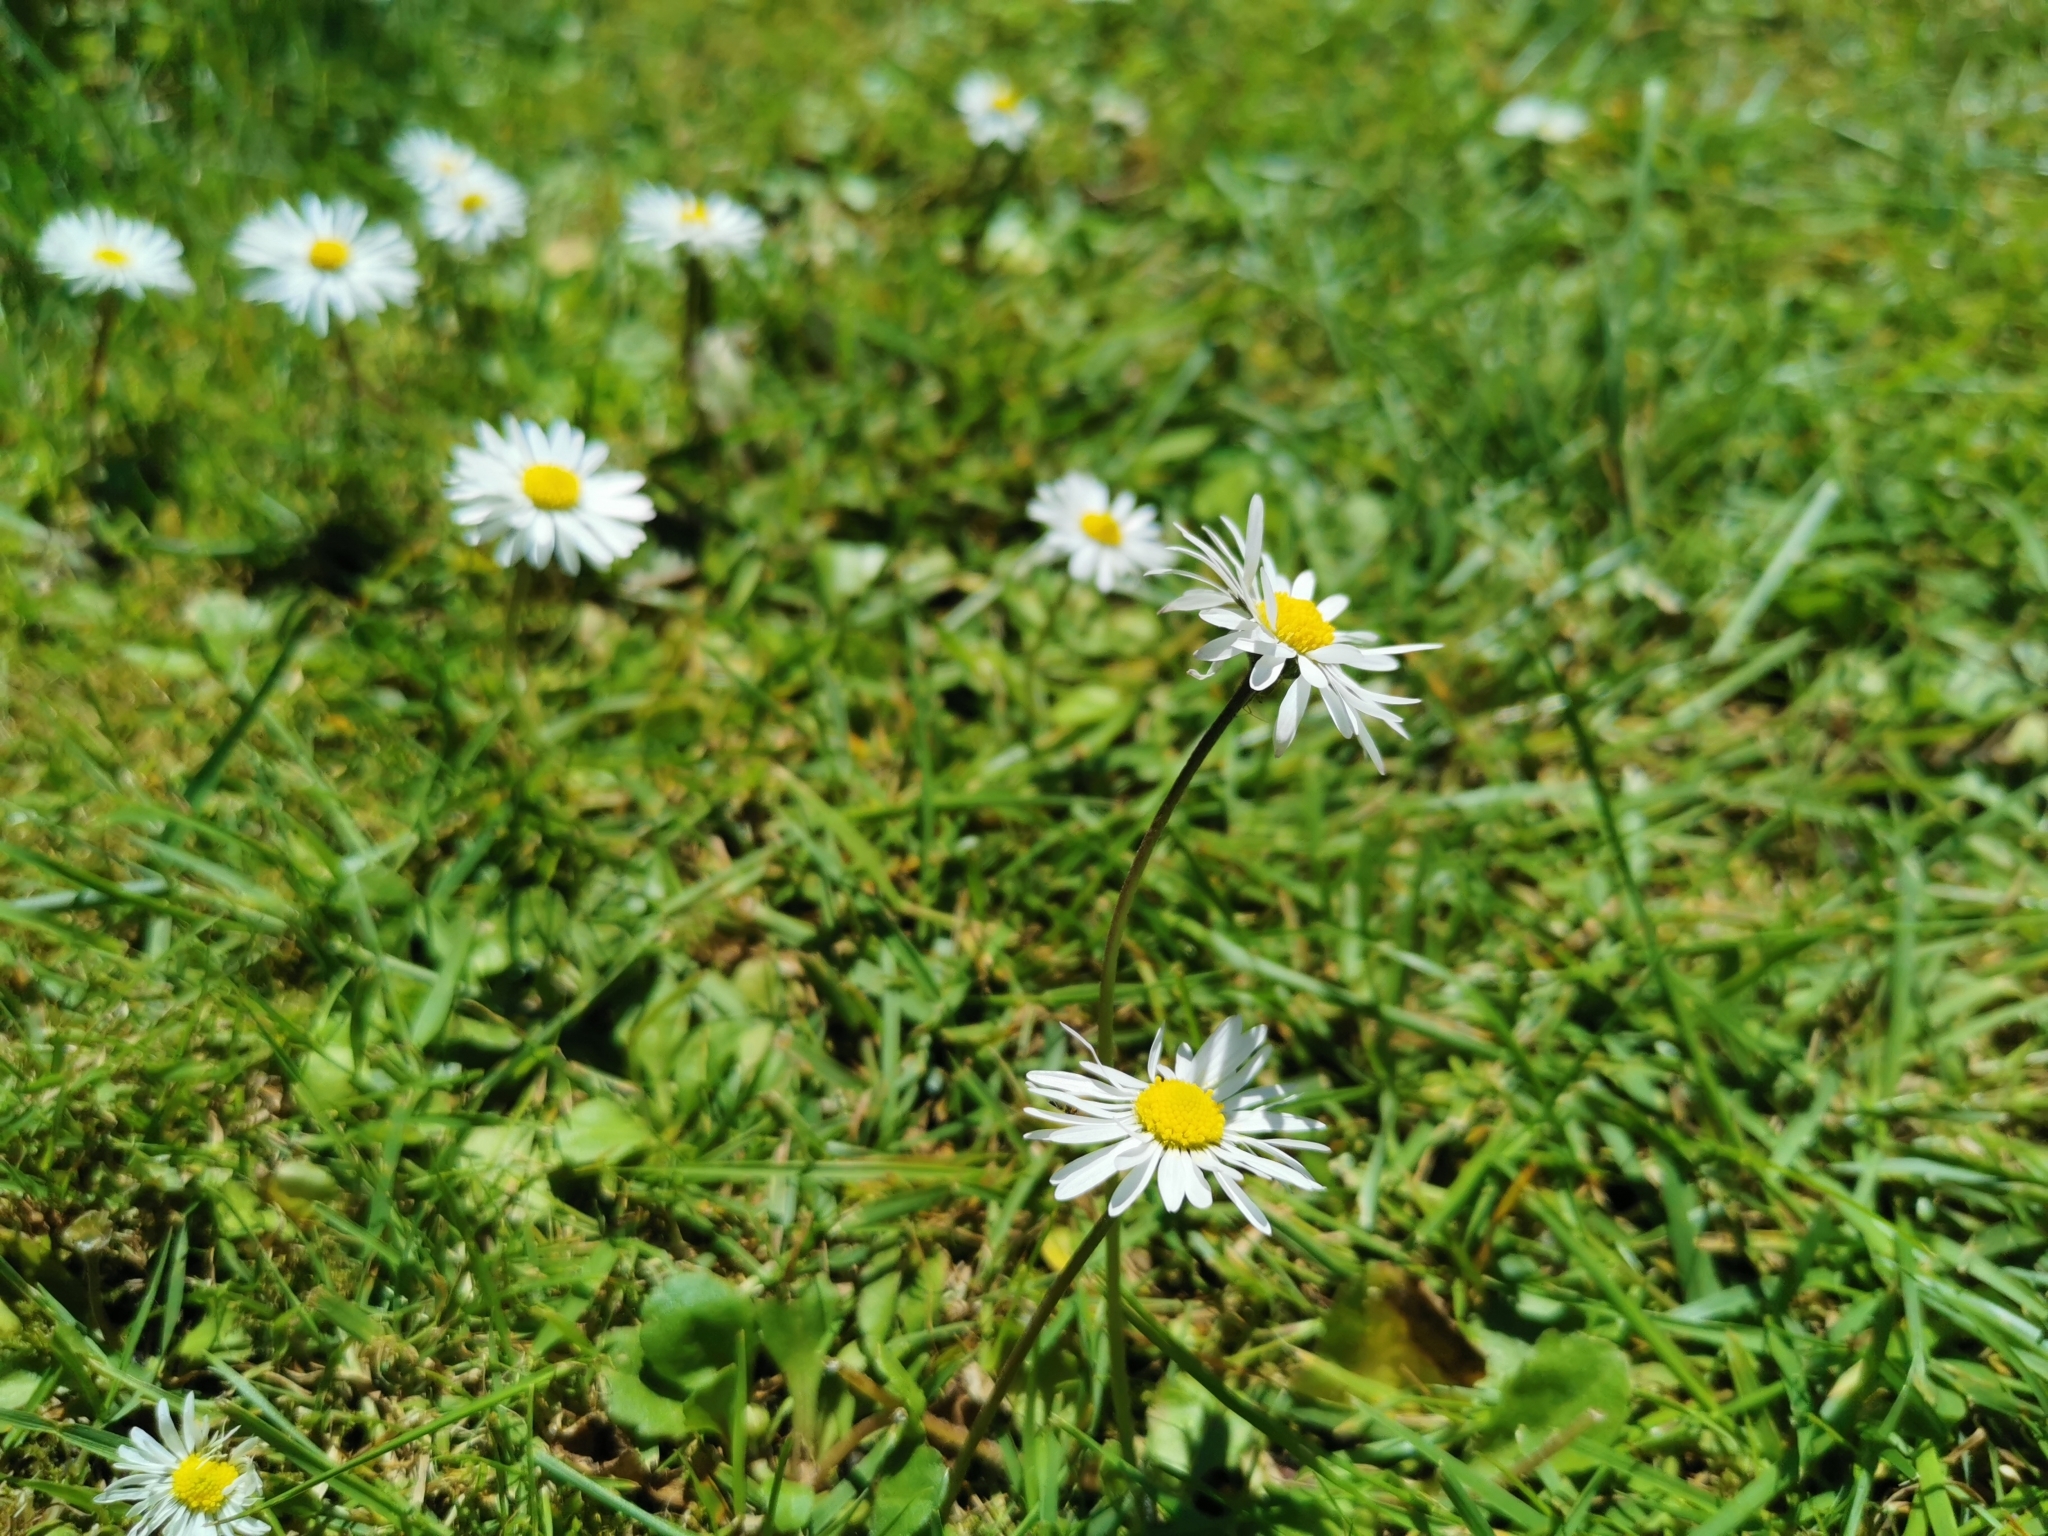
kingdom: Plantae
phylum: Tracheophyta
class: Magnoliopsida
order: Asterales
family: Asteraceae
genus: Bellis
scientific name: Bellis perennis
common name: Lawndaisy
